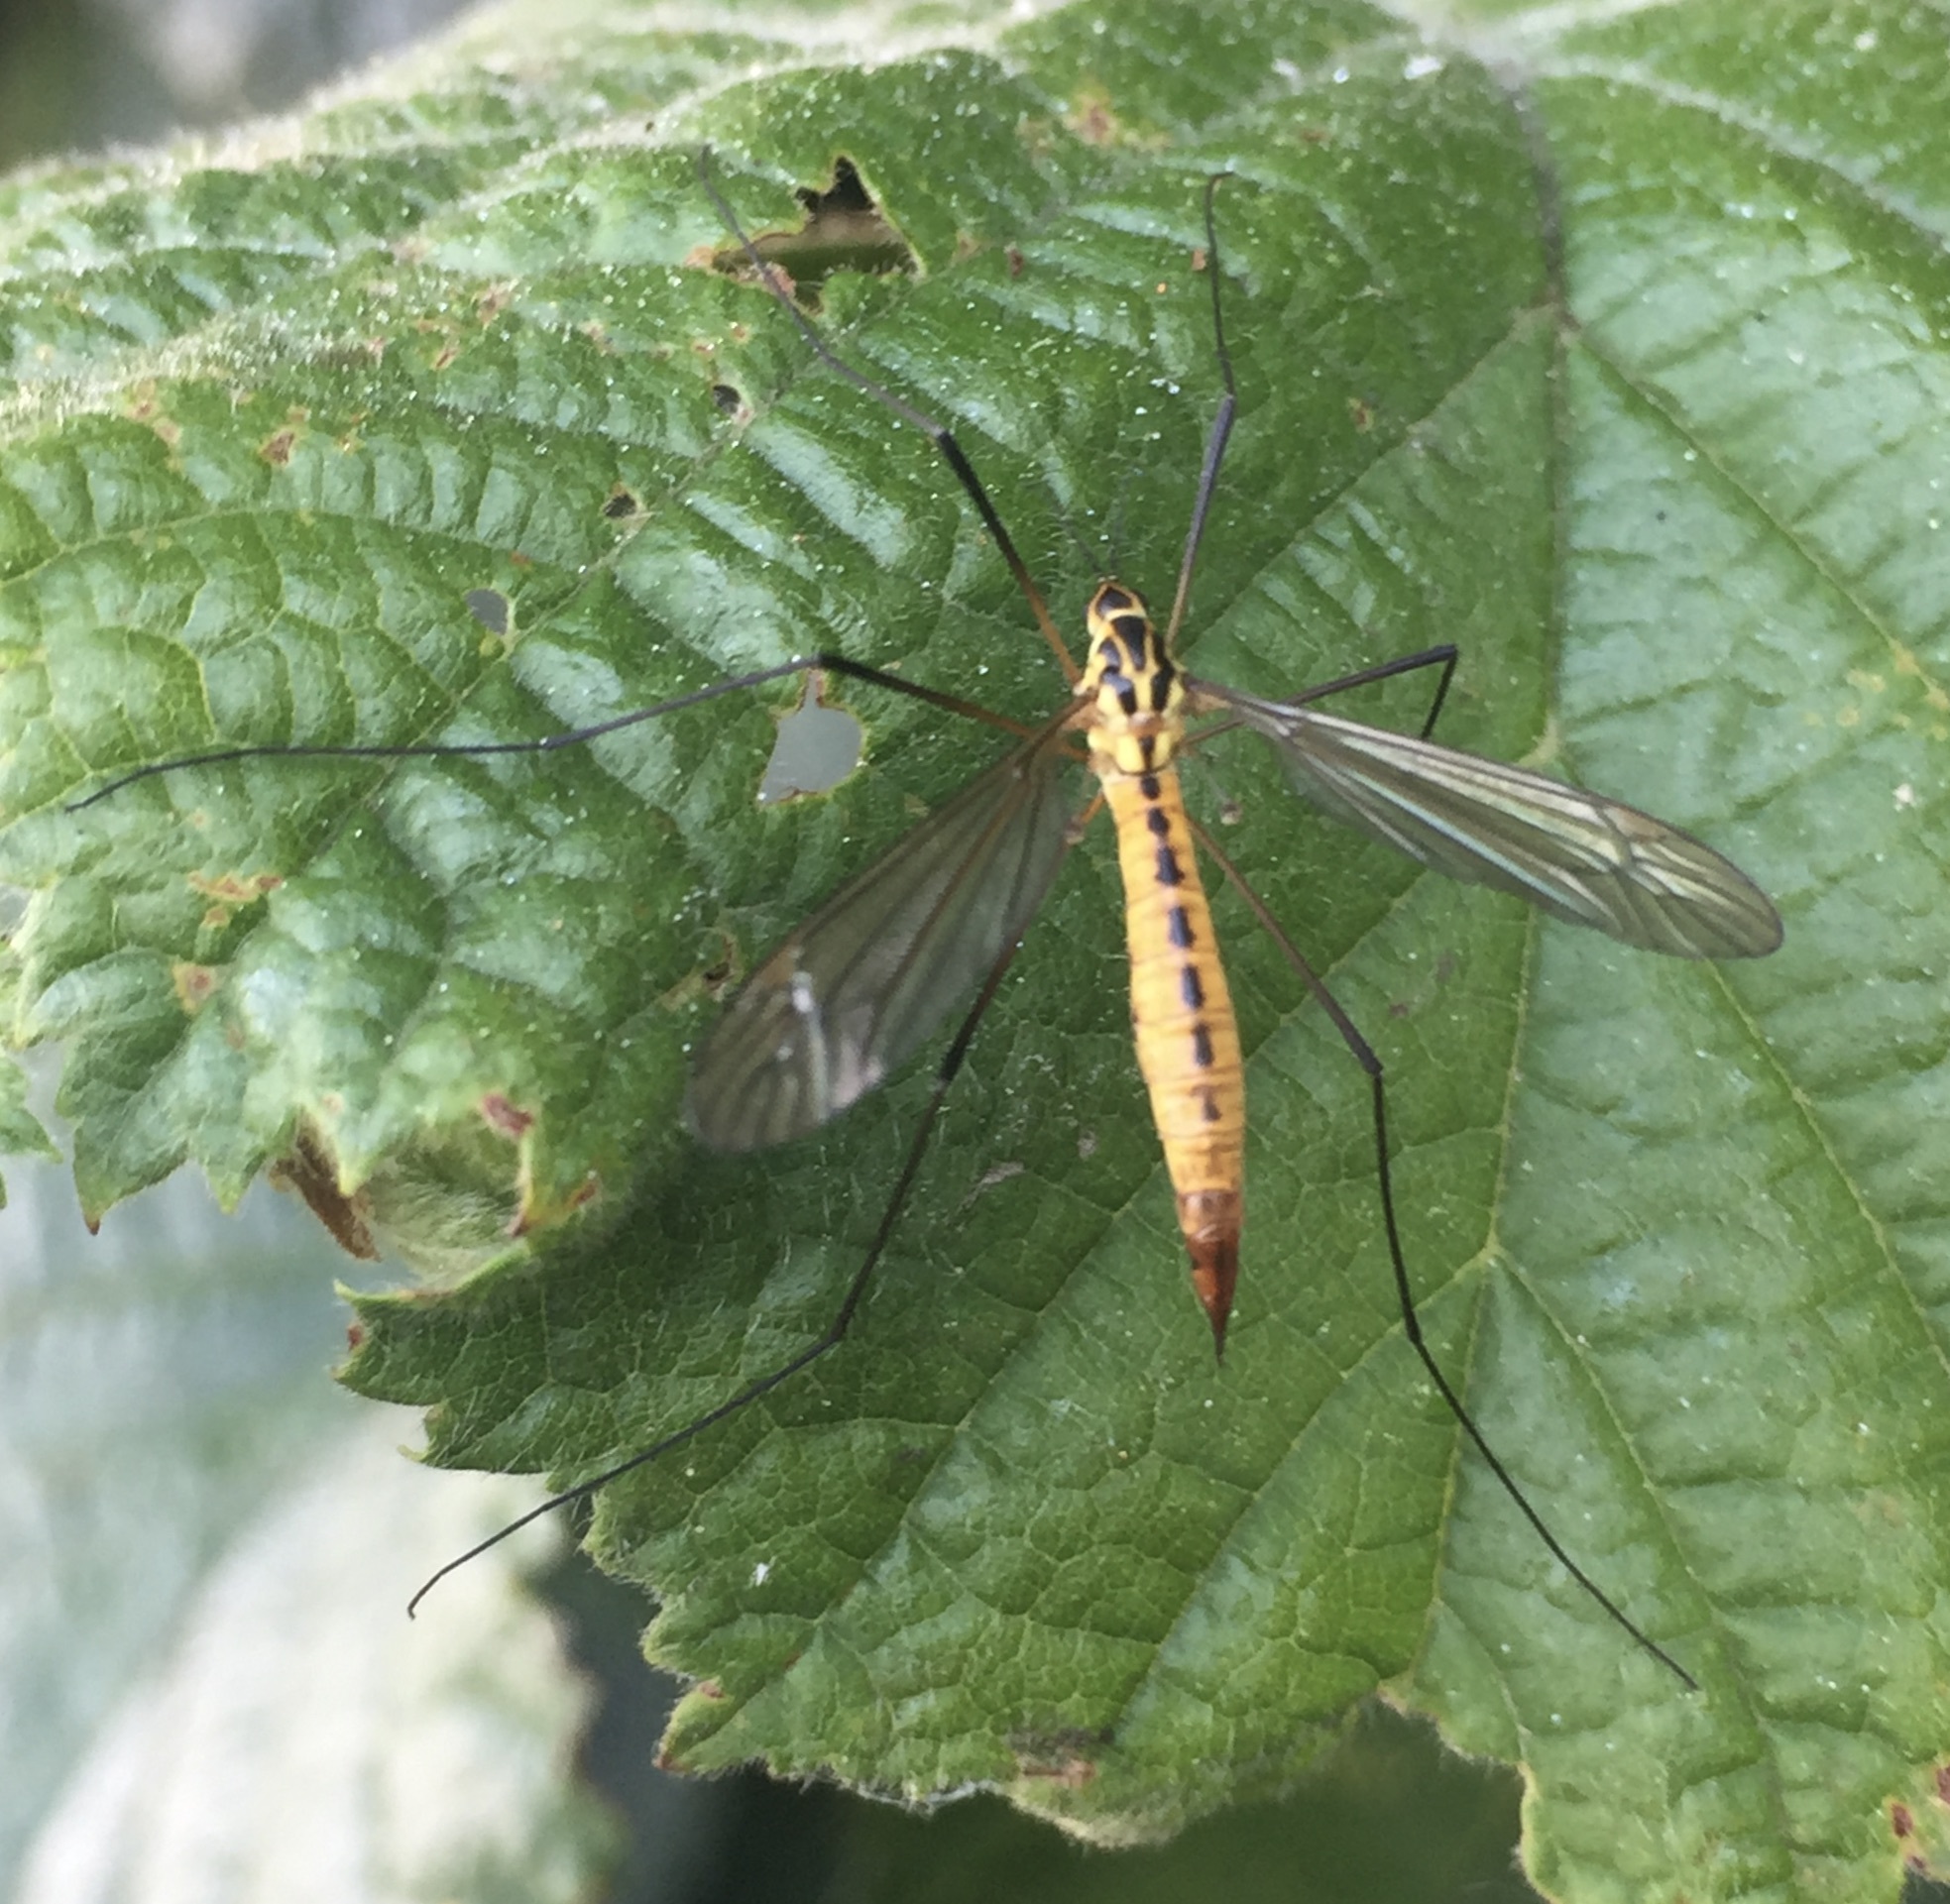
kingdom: Animalia
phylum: Arthropoda
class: Insecta
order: Diptera
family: Tipulidae
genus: Nephrotoma
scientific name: Nephrotoma flavescens
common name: Tiger cranefly
